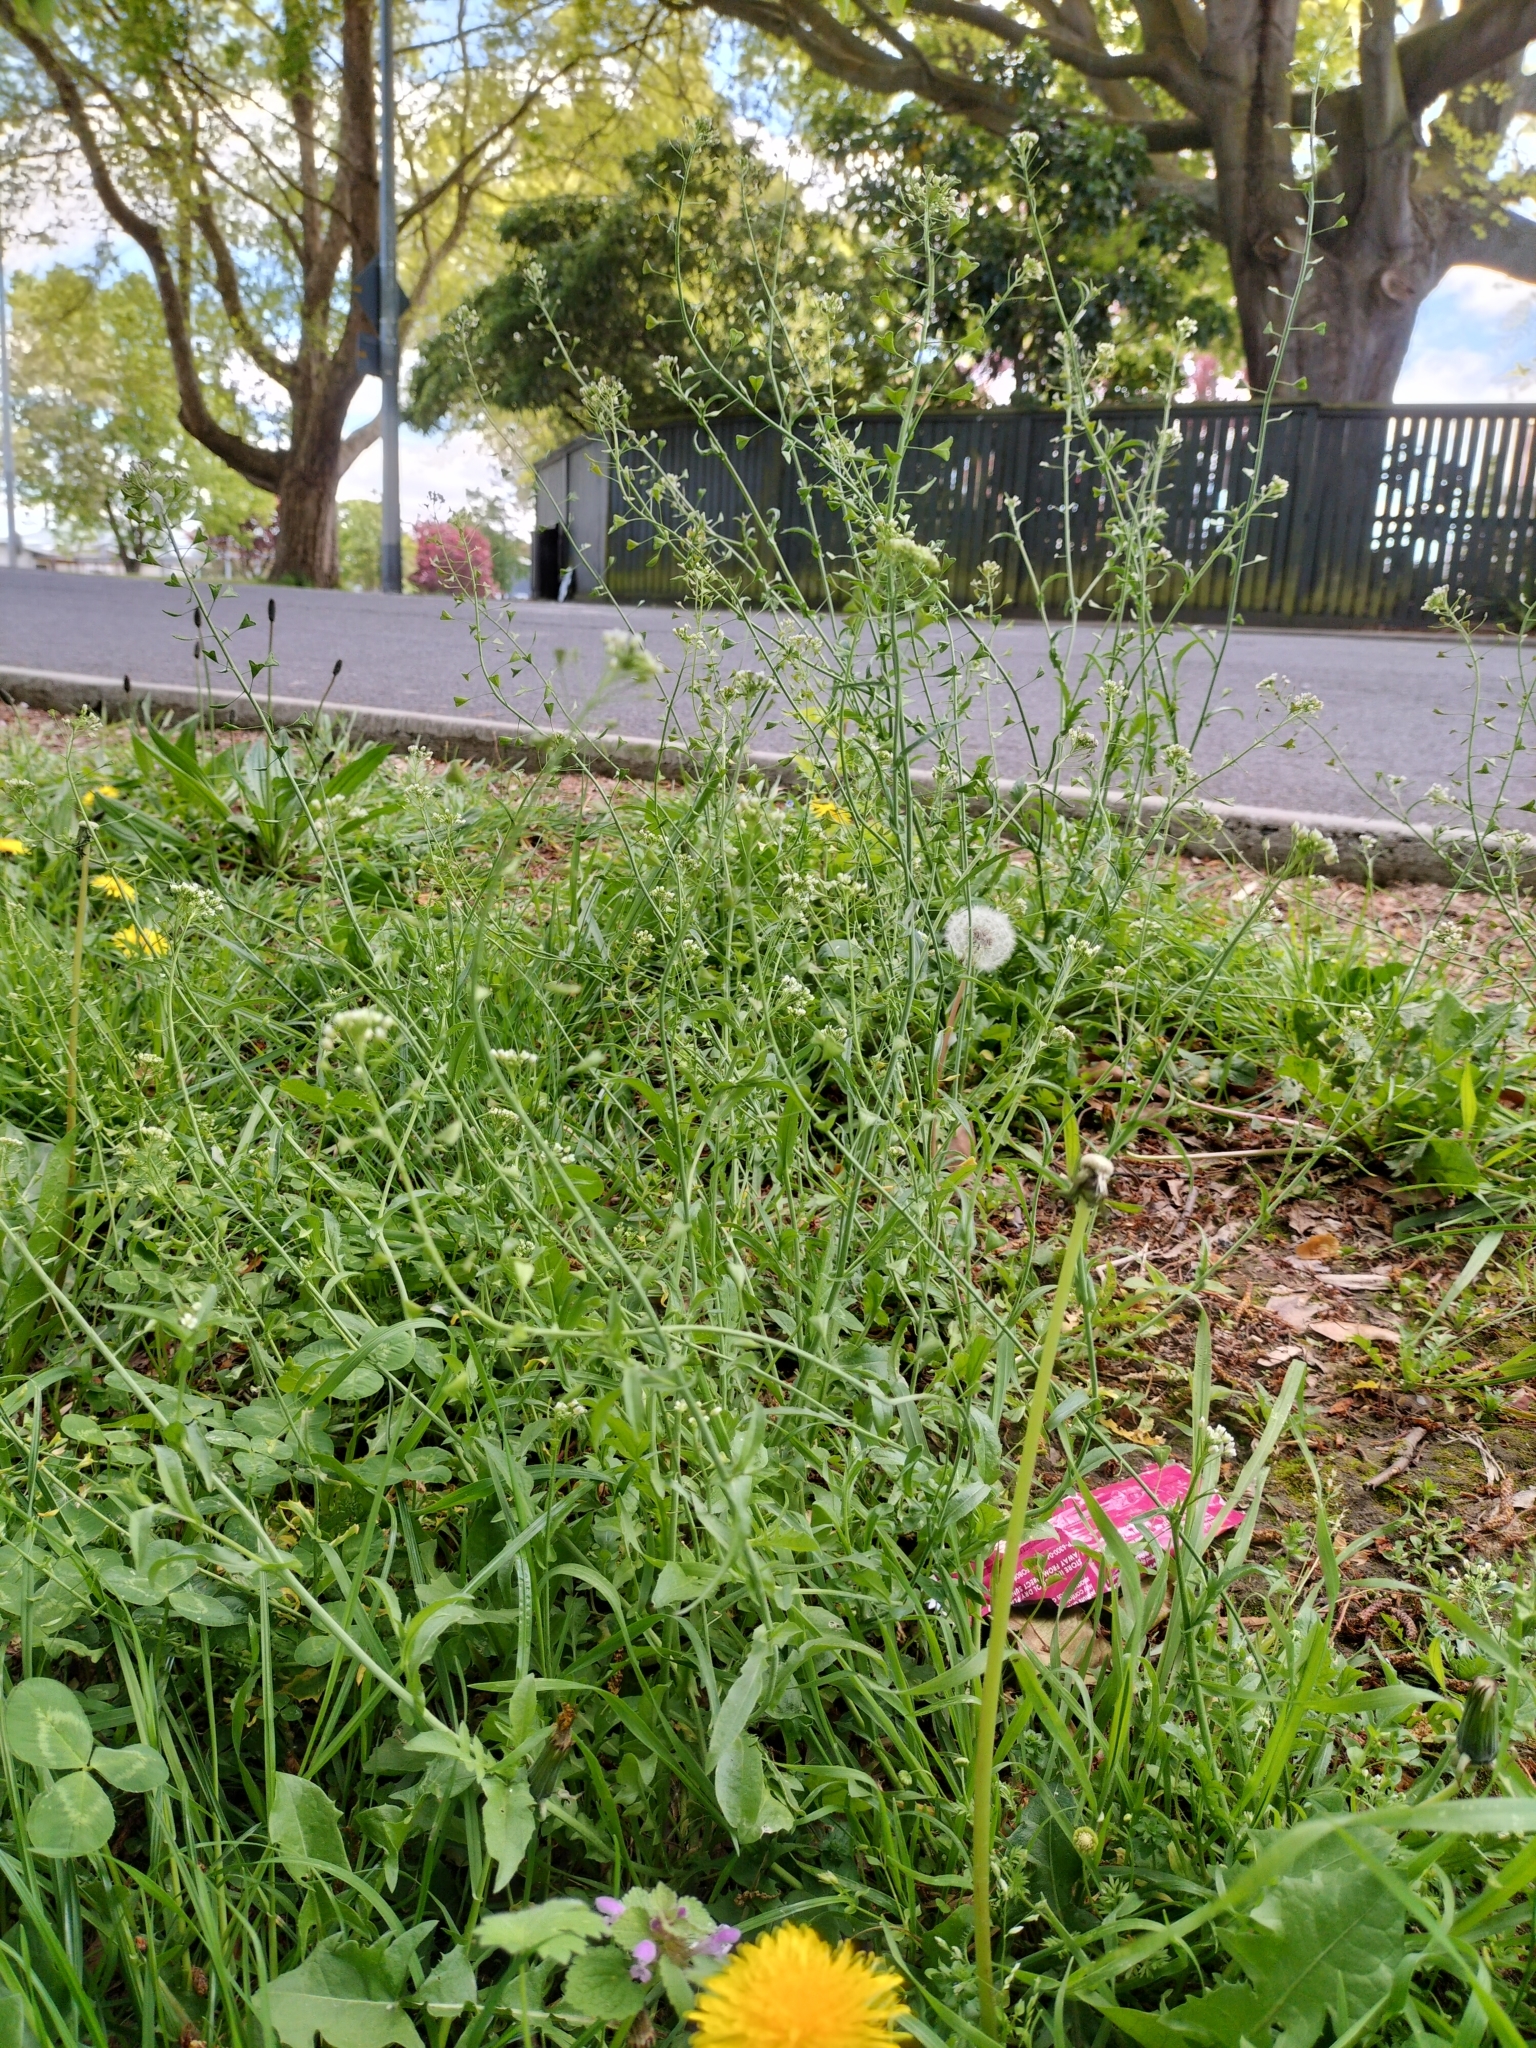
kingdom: Plantae
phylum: Tracheophyta
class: Magnoliopsida
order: Brassicales
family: Brassicaceae
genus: Capsella
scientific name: Capsella bursa-pastoris
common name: Shepherd's purse
